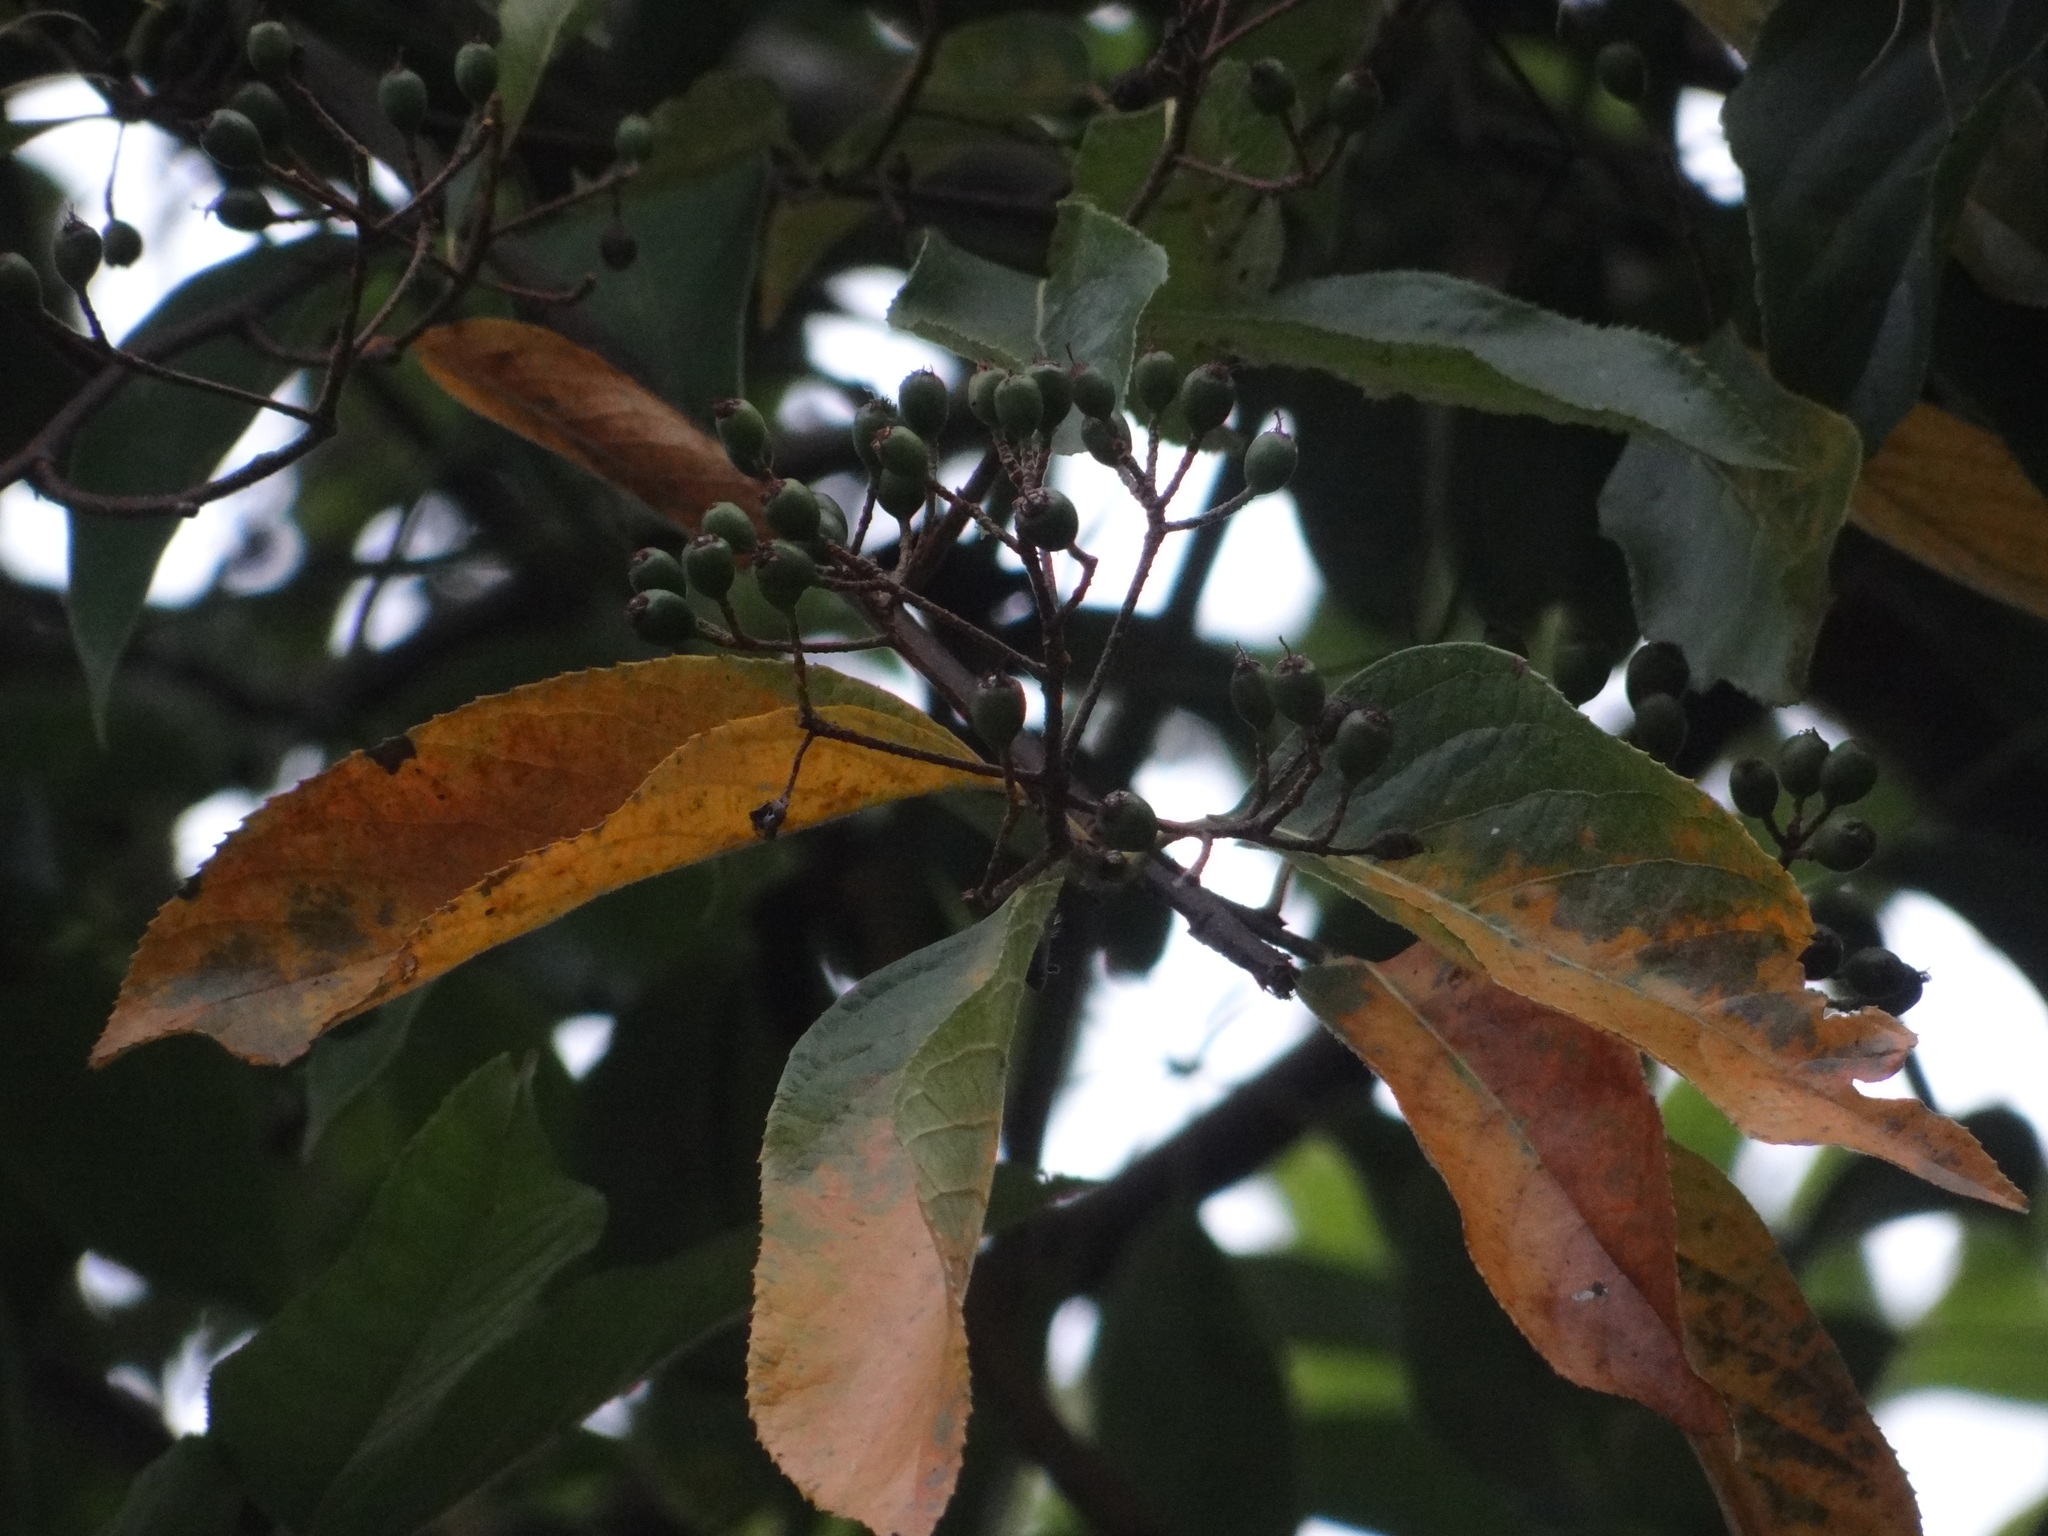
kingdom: Plantae
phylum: Tracheophyta
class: Magnoliopsida
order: Rosales
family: Rosaceae
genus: Pourthiaea
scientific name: Pourthiaea beauverdiana
